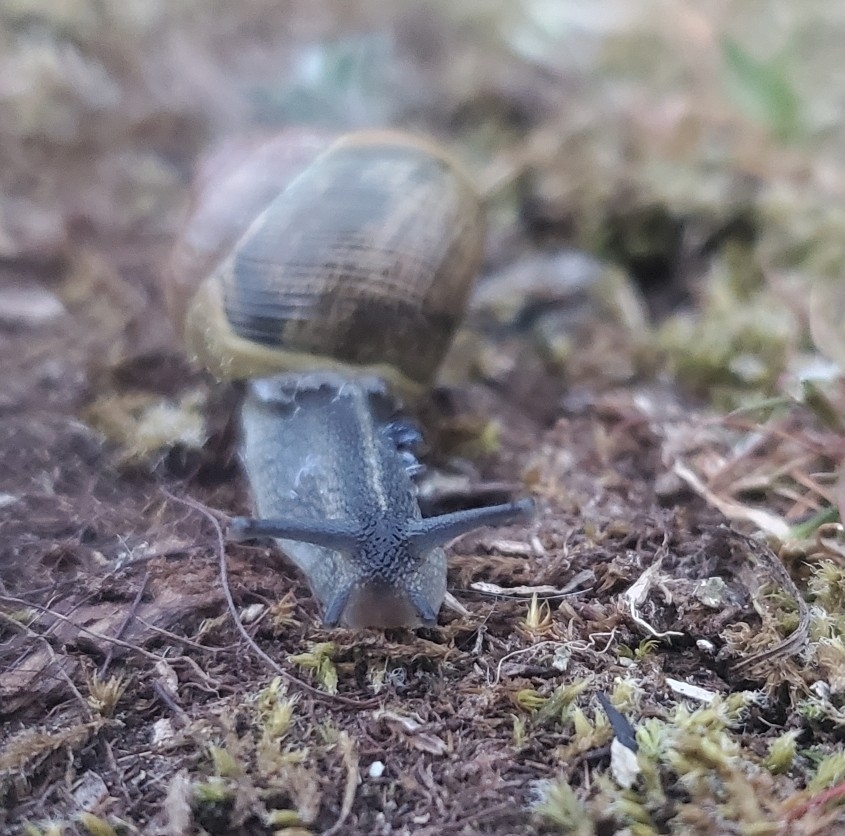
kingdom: Animalia
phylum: Mollusca
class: Gastropoda
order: Stylommatophora
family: Helicidae
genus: Cepaea
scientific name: Cepaea nemoralis
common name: Grovesnail
